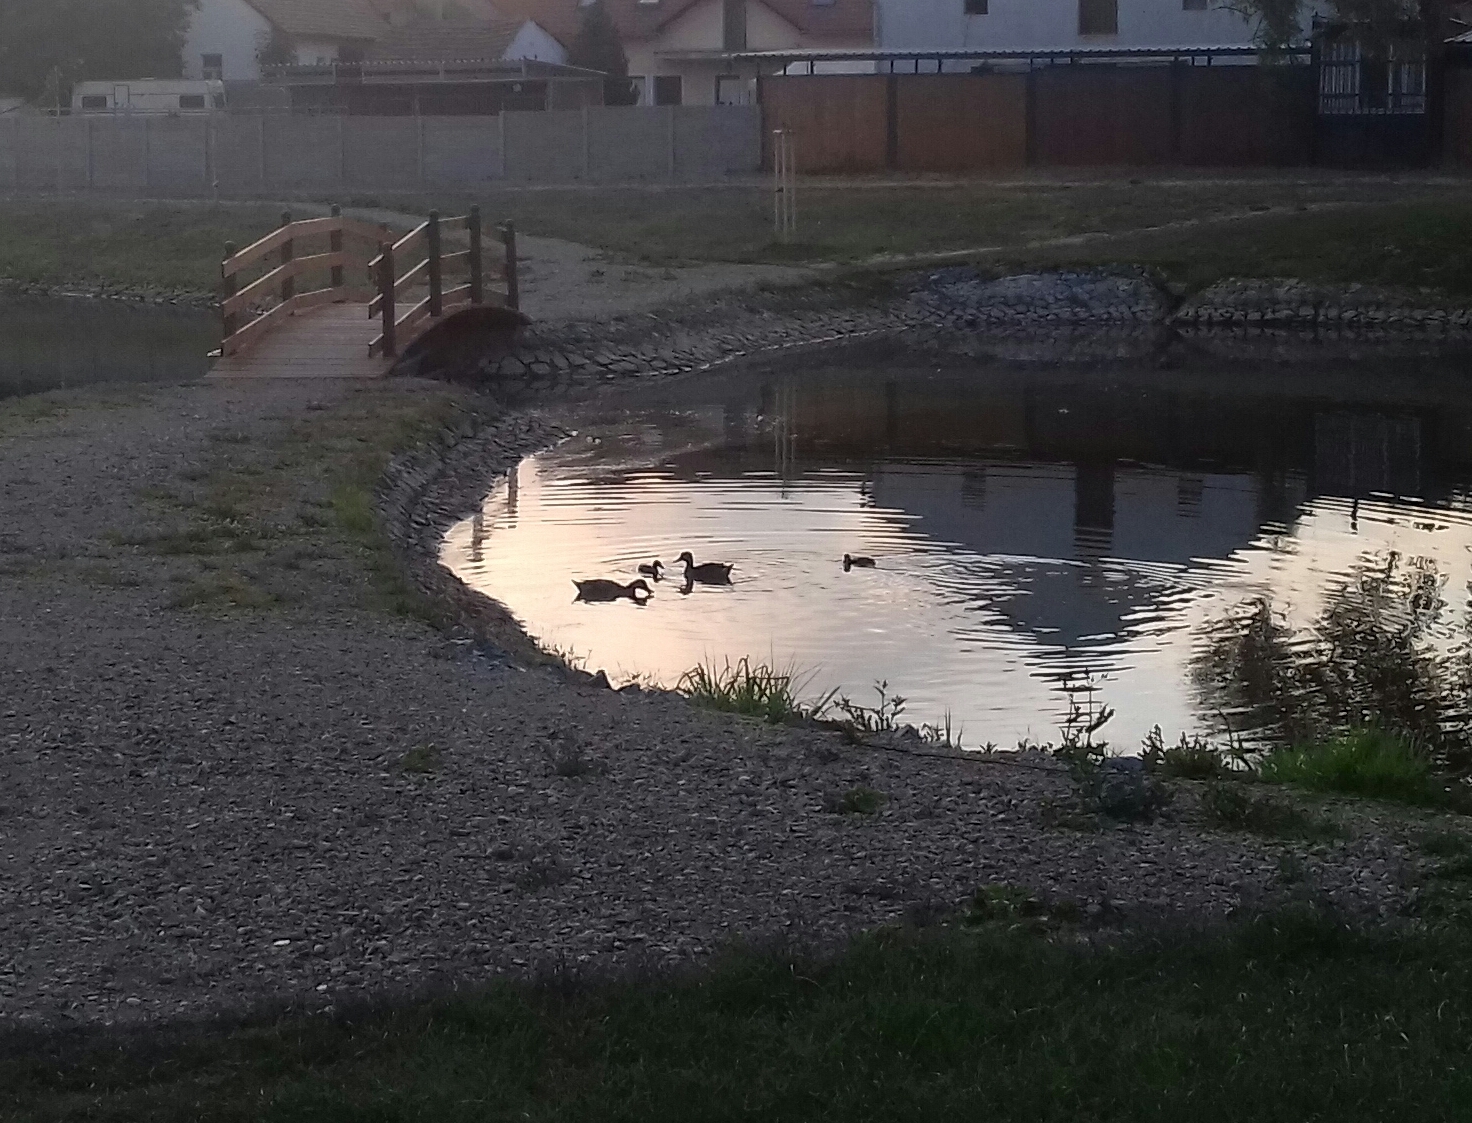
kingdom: Animalia
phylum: Chordata
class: Aves
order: Anseriformes
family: Anatidae
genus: Anas
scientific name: Anas platyrhynchos
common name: Mallard
